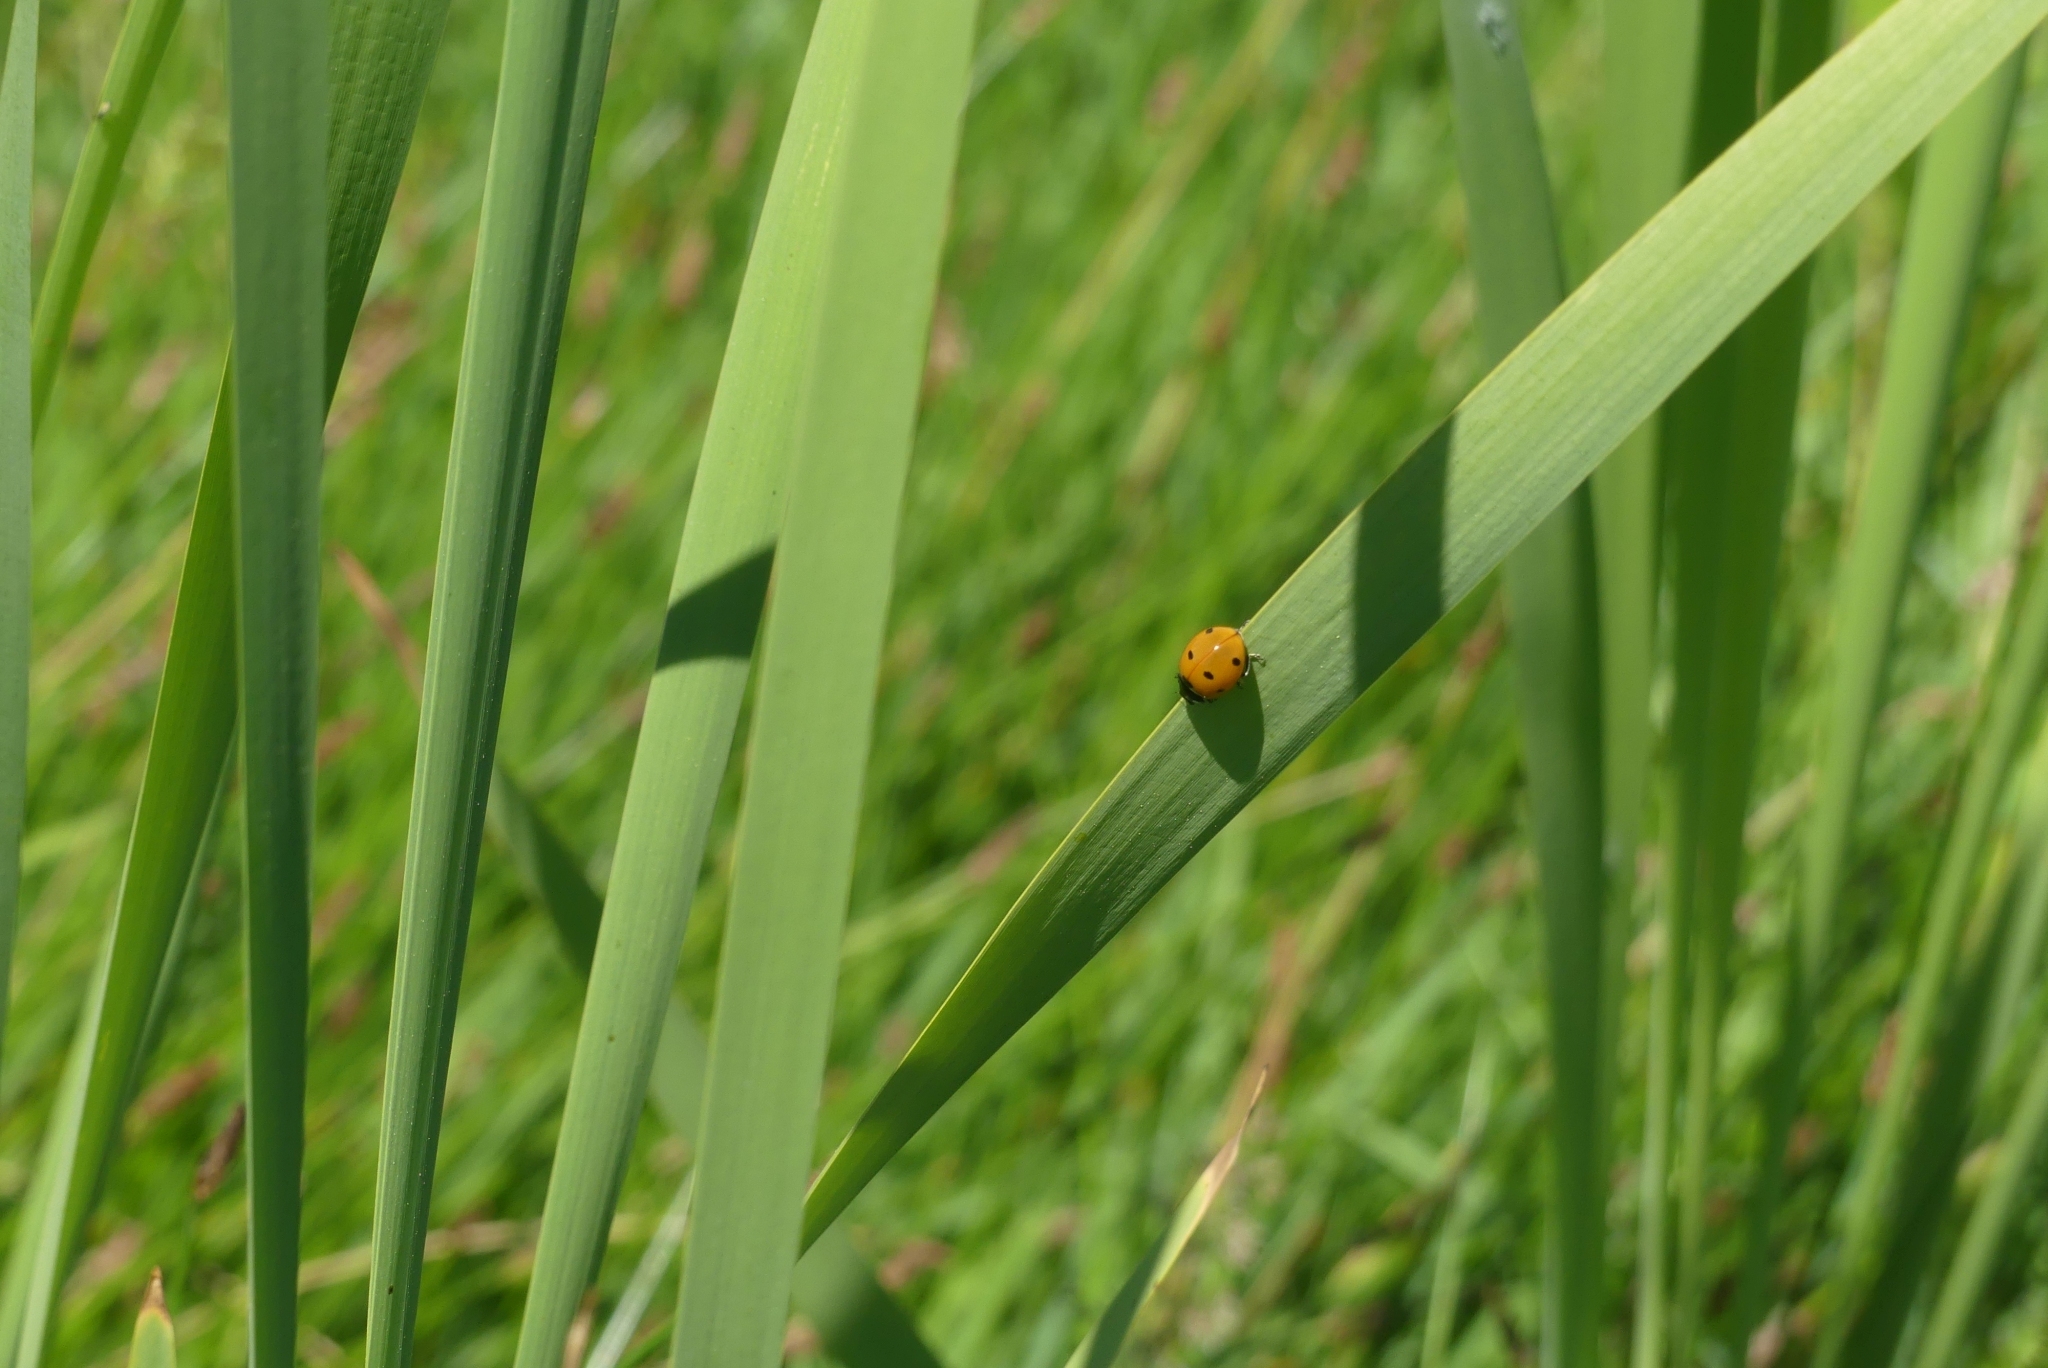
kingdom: Animalia
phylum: Arthropoda
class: Insecta
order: Coleoptera
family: Coccinellidae
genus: Coccinella
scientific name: Coccinella septempunctata
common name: Sevenspotted lady beetle
